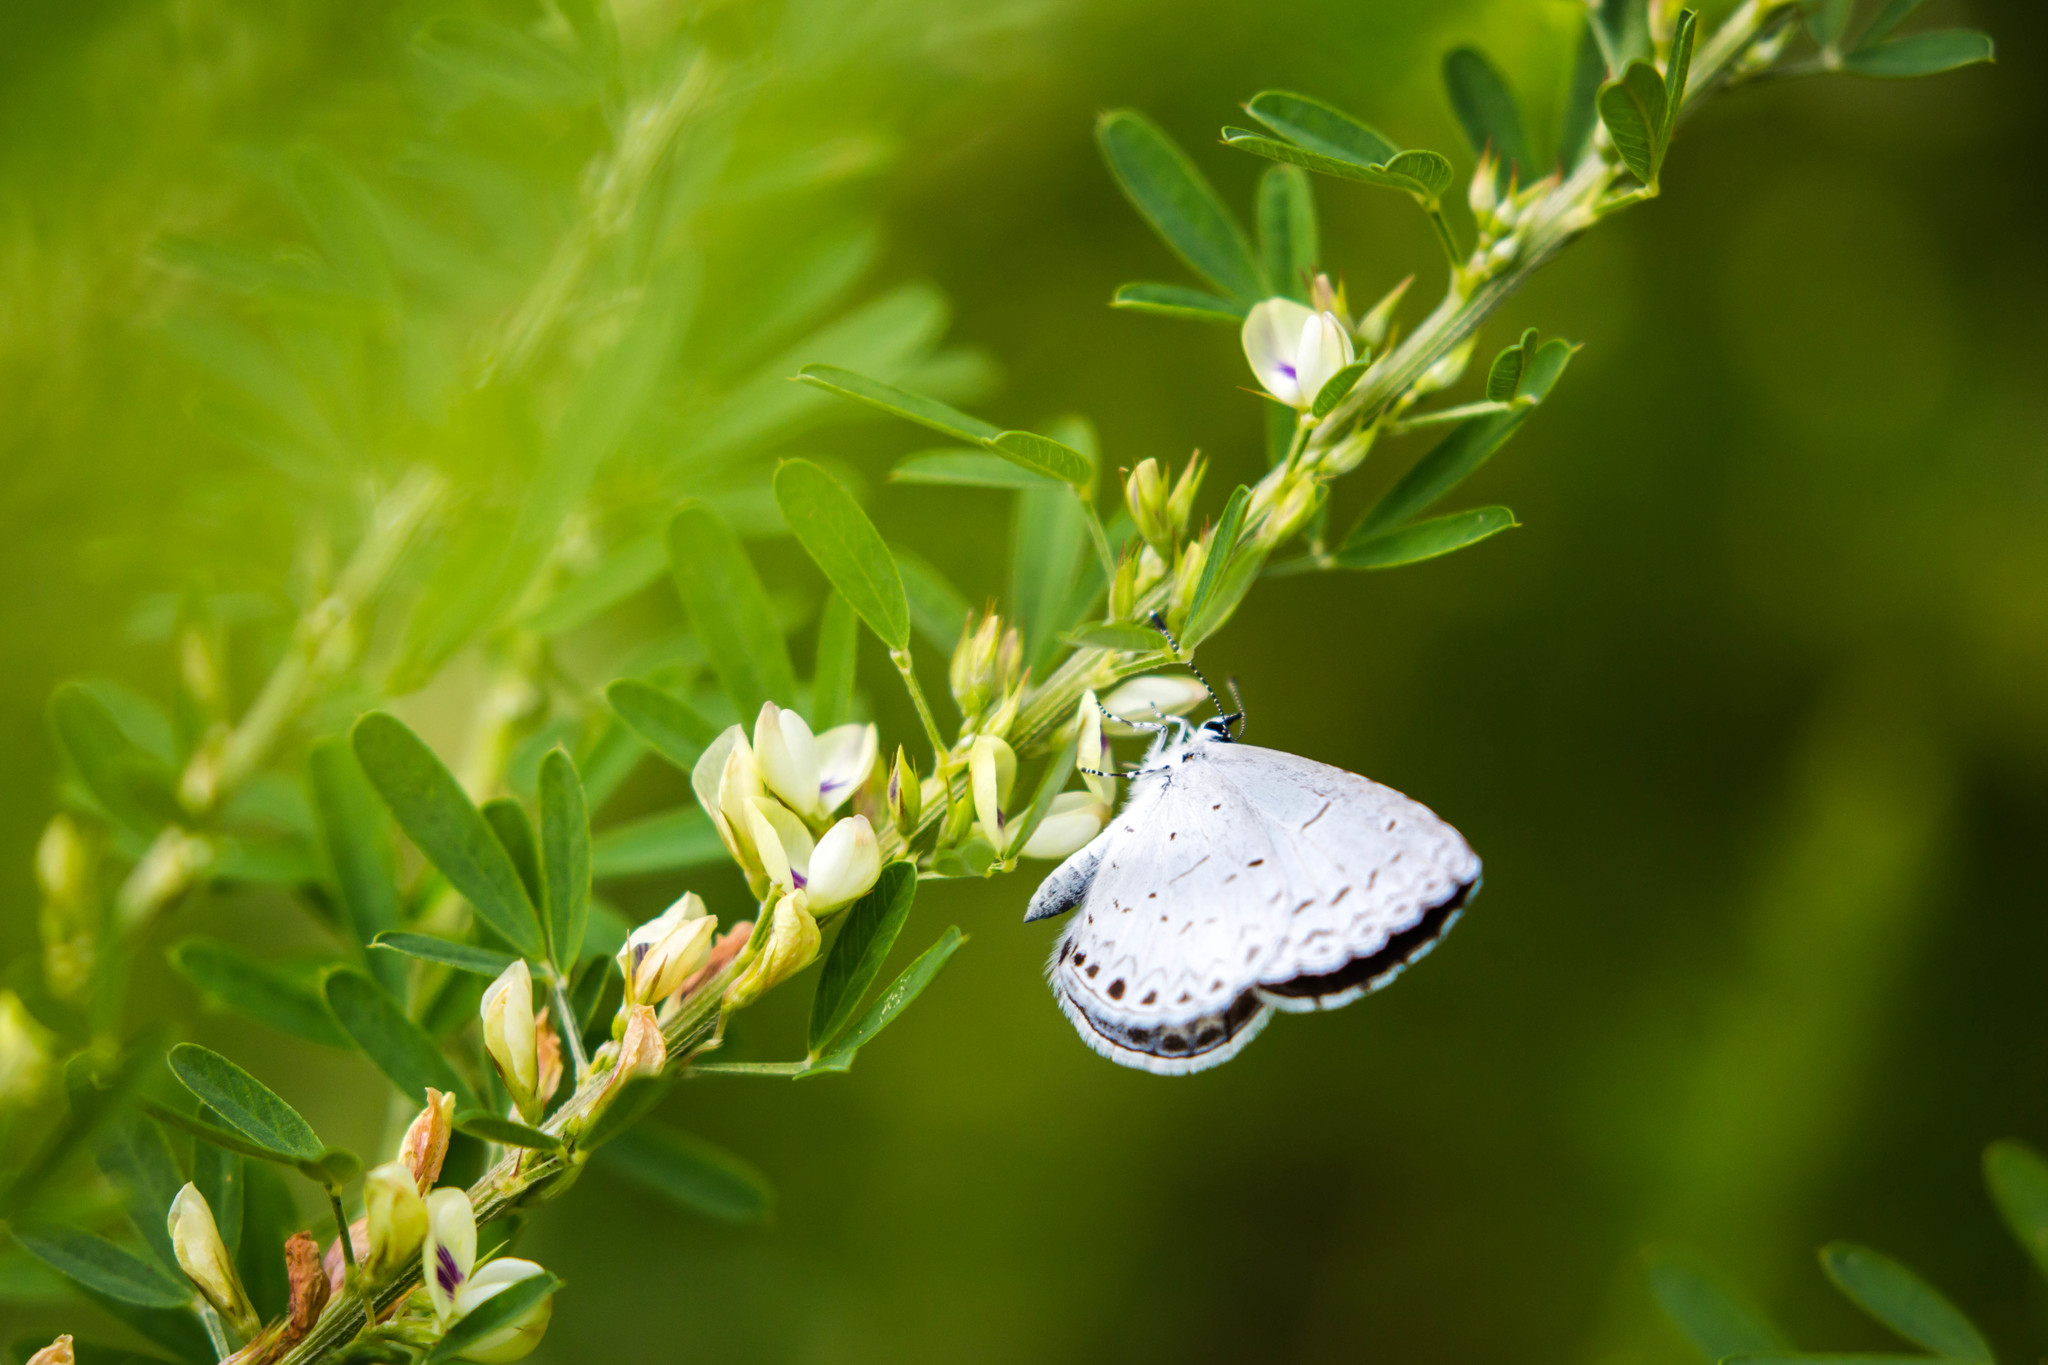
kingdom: Animalia
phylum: Arthropoda
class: Insecta
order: Lepidoptera
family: Lycaenidae
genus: Cyaniris
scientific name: Cyaniris neglecta
